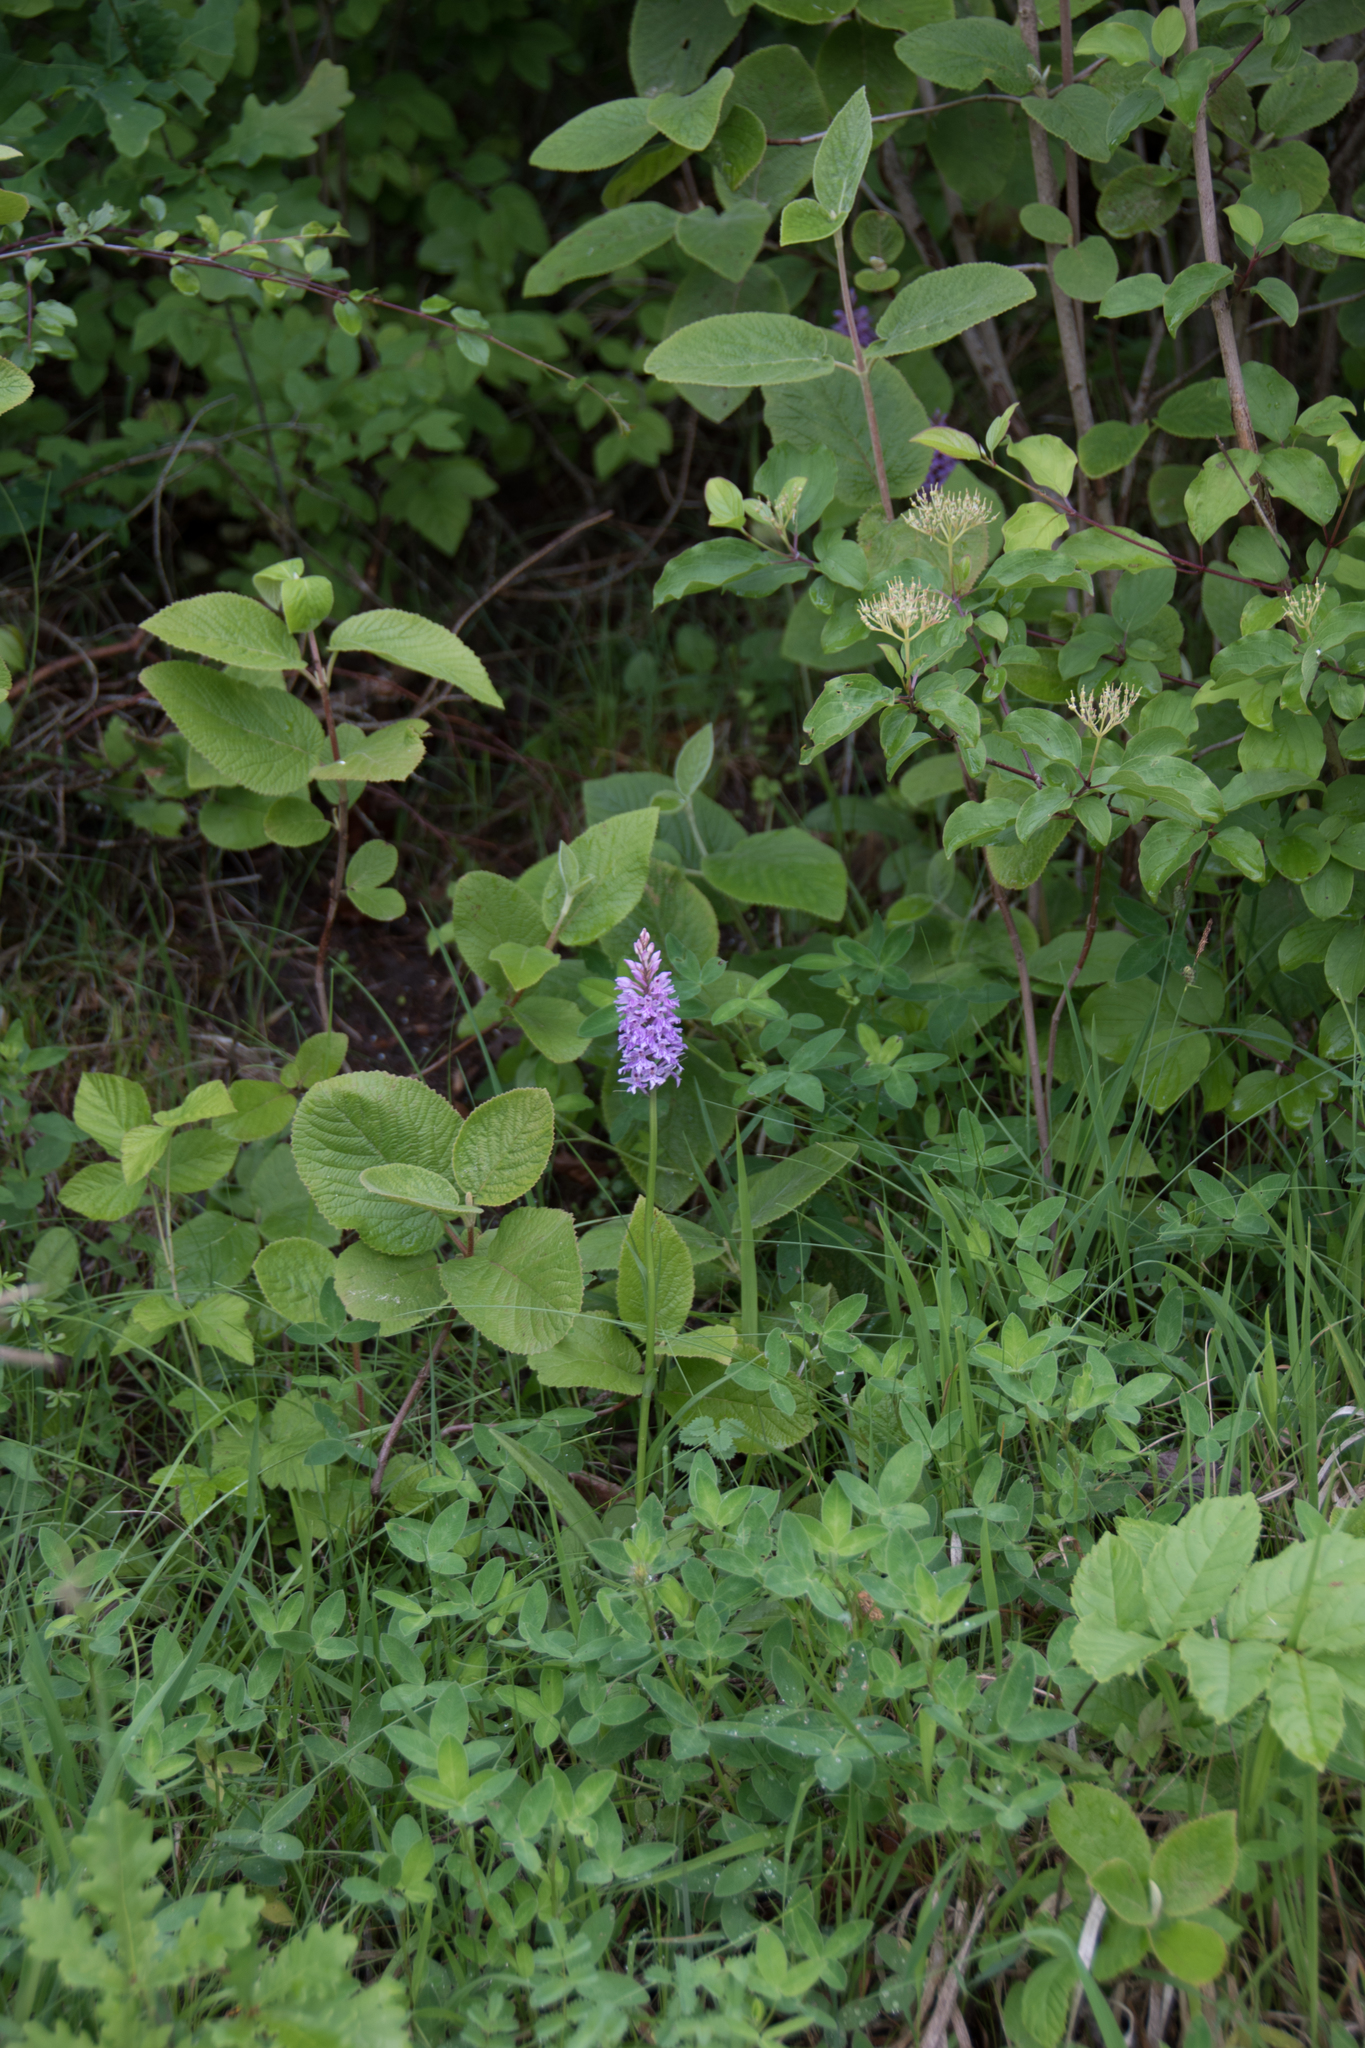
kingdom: Plantae
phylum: Tracheophyta
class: Liliopsida
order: Asparagales
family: Orchidaceae
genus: Dactylorhiza
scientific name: Dactylorhiza maculata
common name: Heath spotted-orchid
